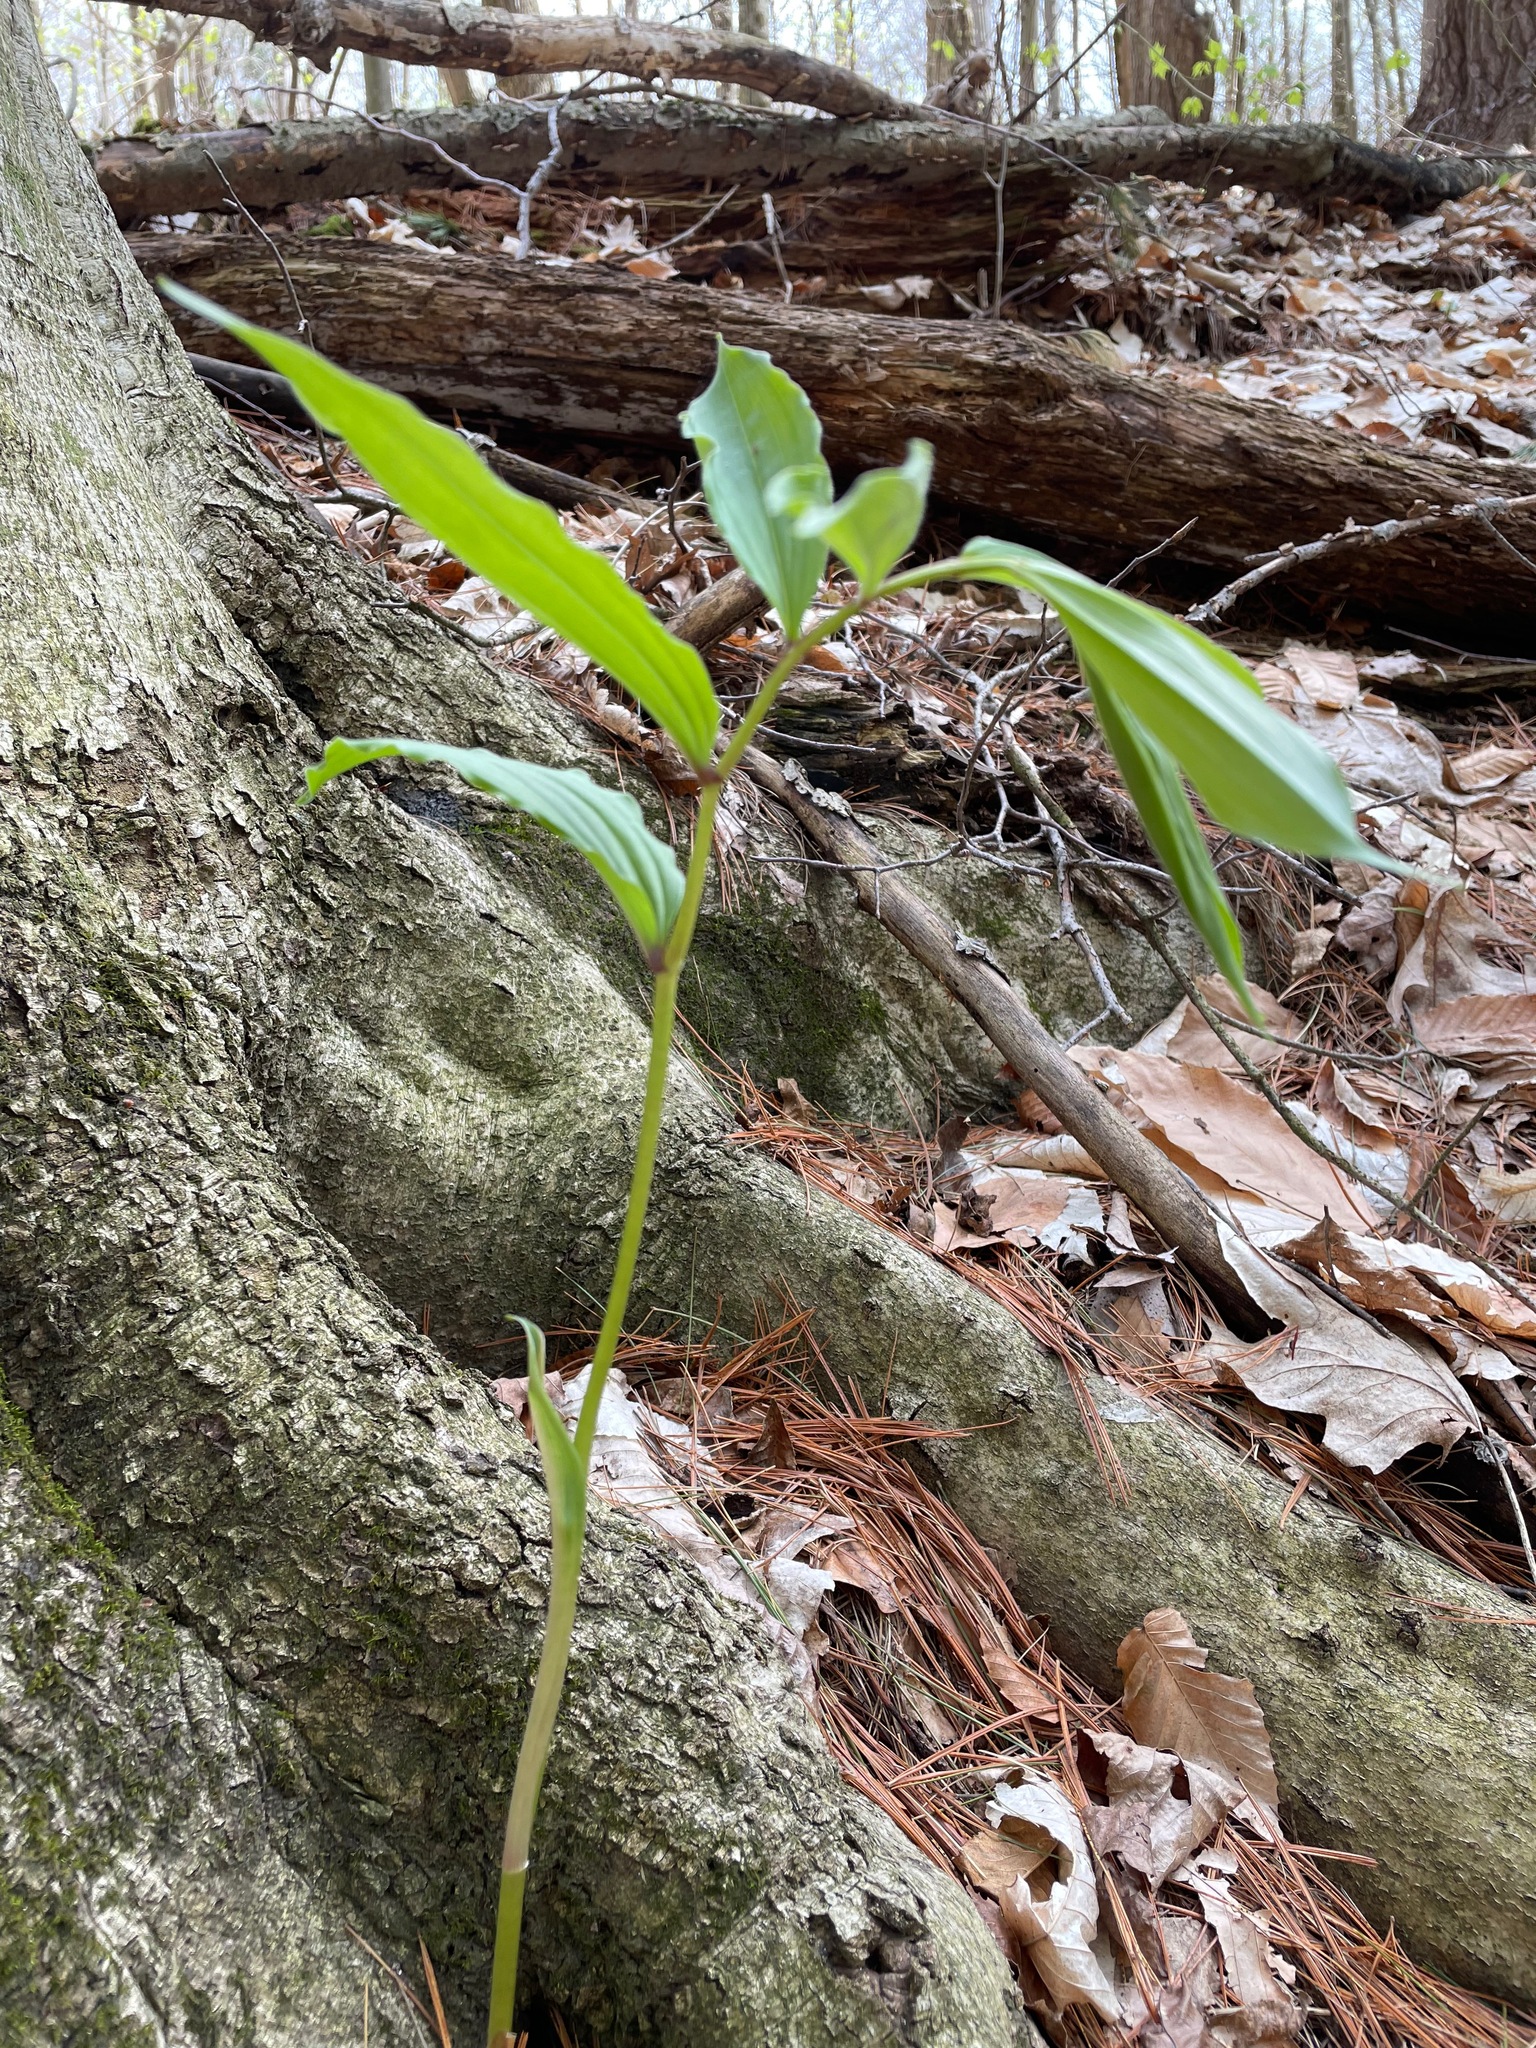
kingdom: Plantae
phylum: Tracheophyta
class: Liliopsida
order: Asparagales
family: Asparagaceae
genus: Maianthemum
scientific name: Maianthemum racemosum
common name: False spikenard
